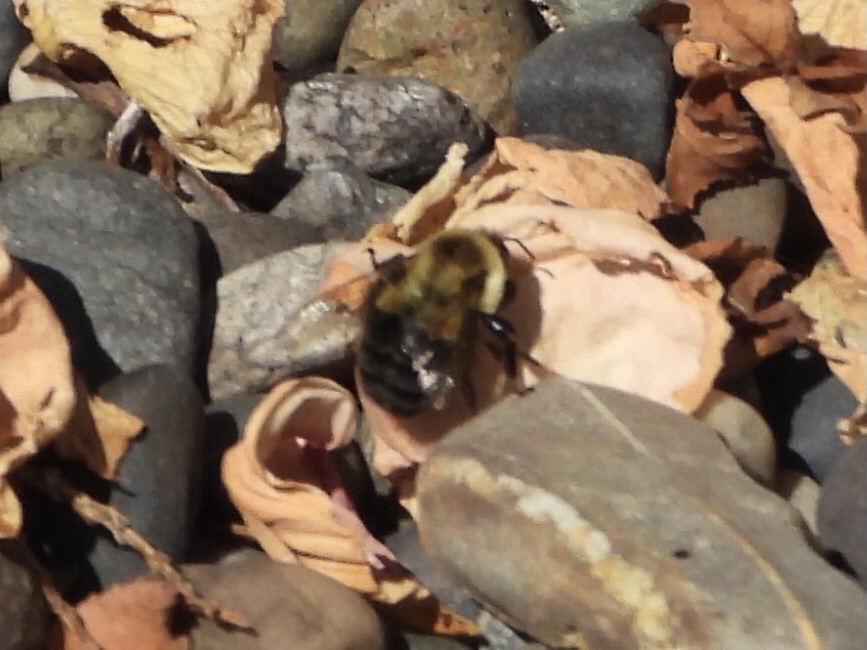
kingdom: Animalia
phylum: Arthropoda
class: Insecta
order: Hymenoptera
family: Apidae
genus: Bombus
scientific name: Bombus impatiens
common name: Common eastern bumble bee
